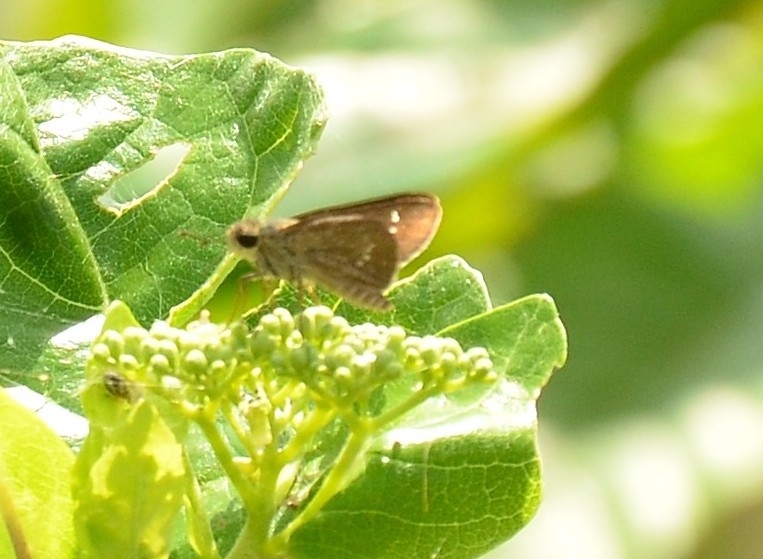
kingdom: Animalia
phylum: Arthropoda
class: Insecta
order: Lepidoptera
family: Hesperiidae
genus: Parnara
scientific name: Parnara naso
